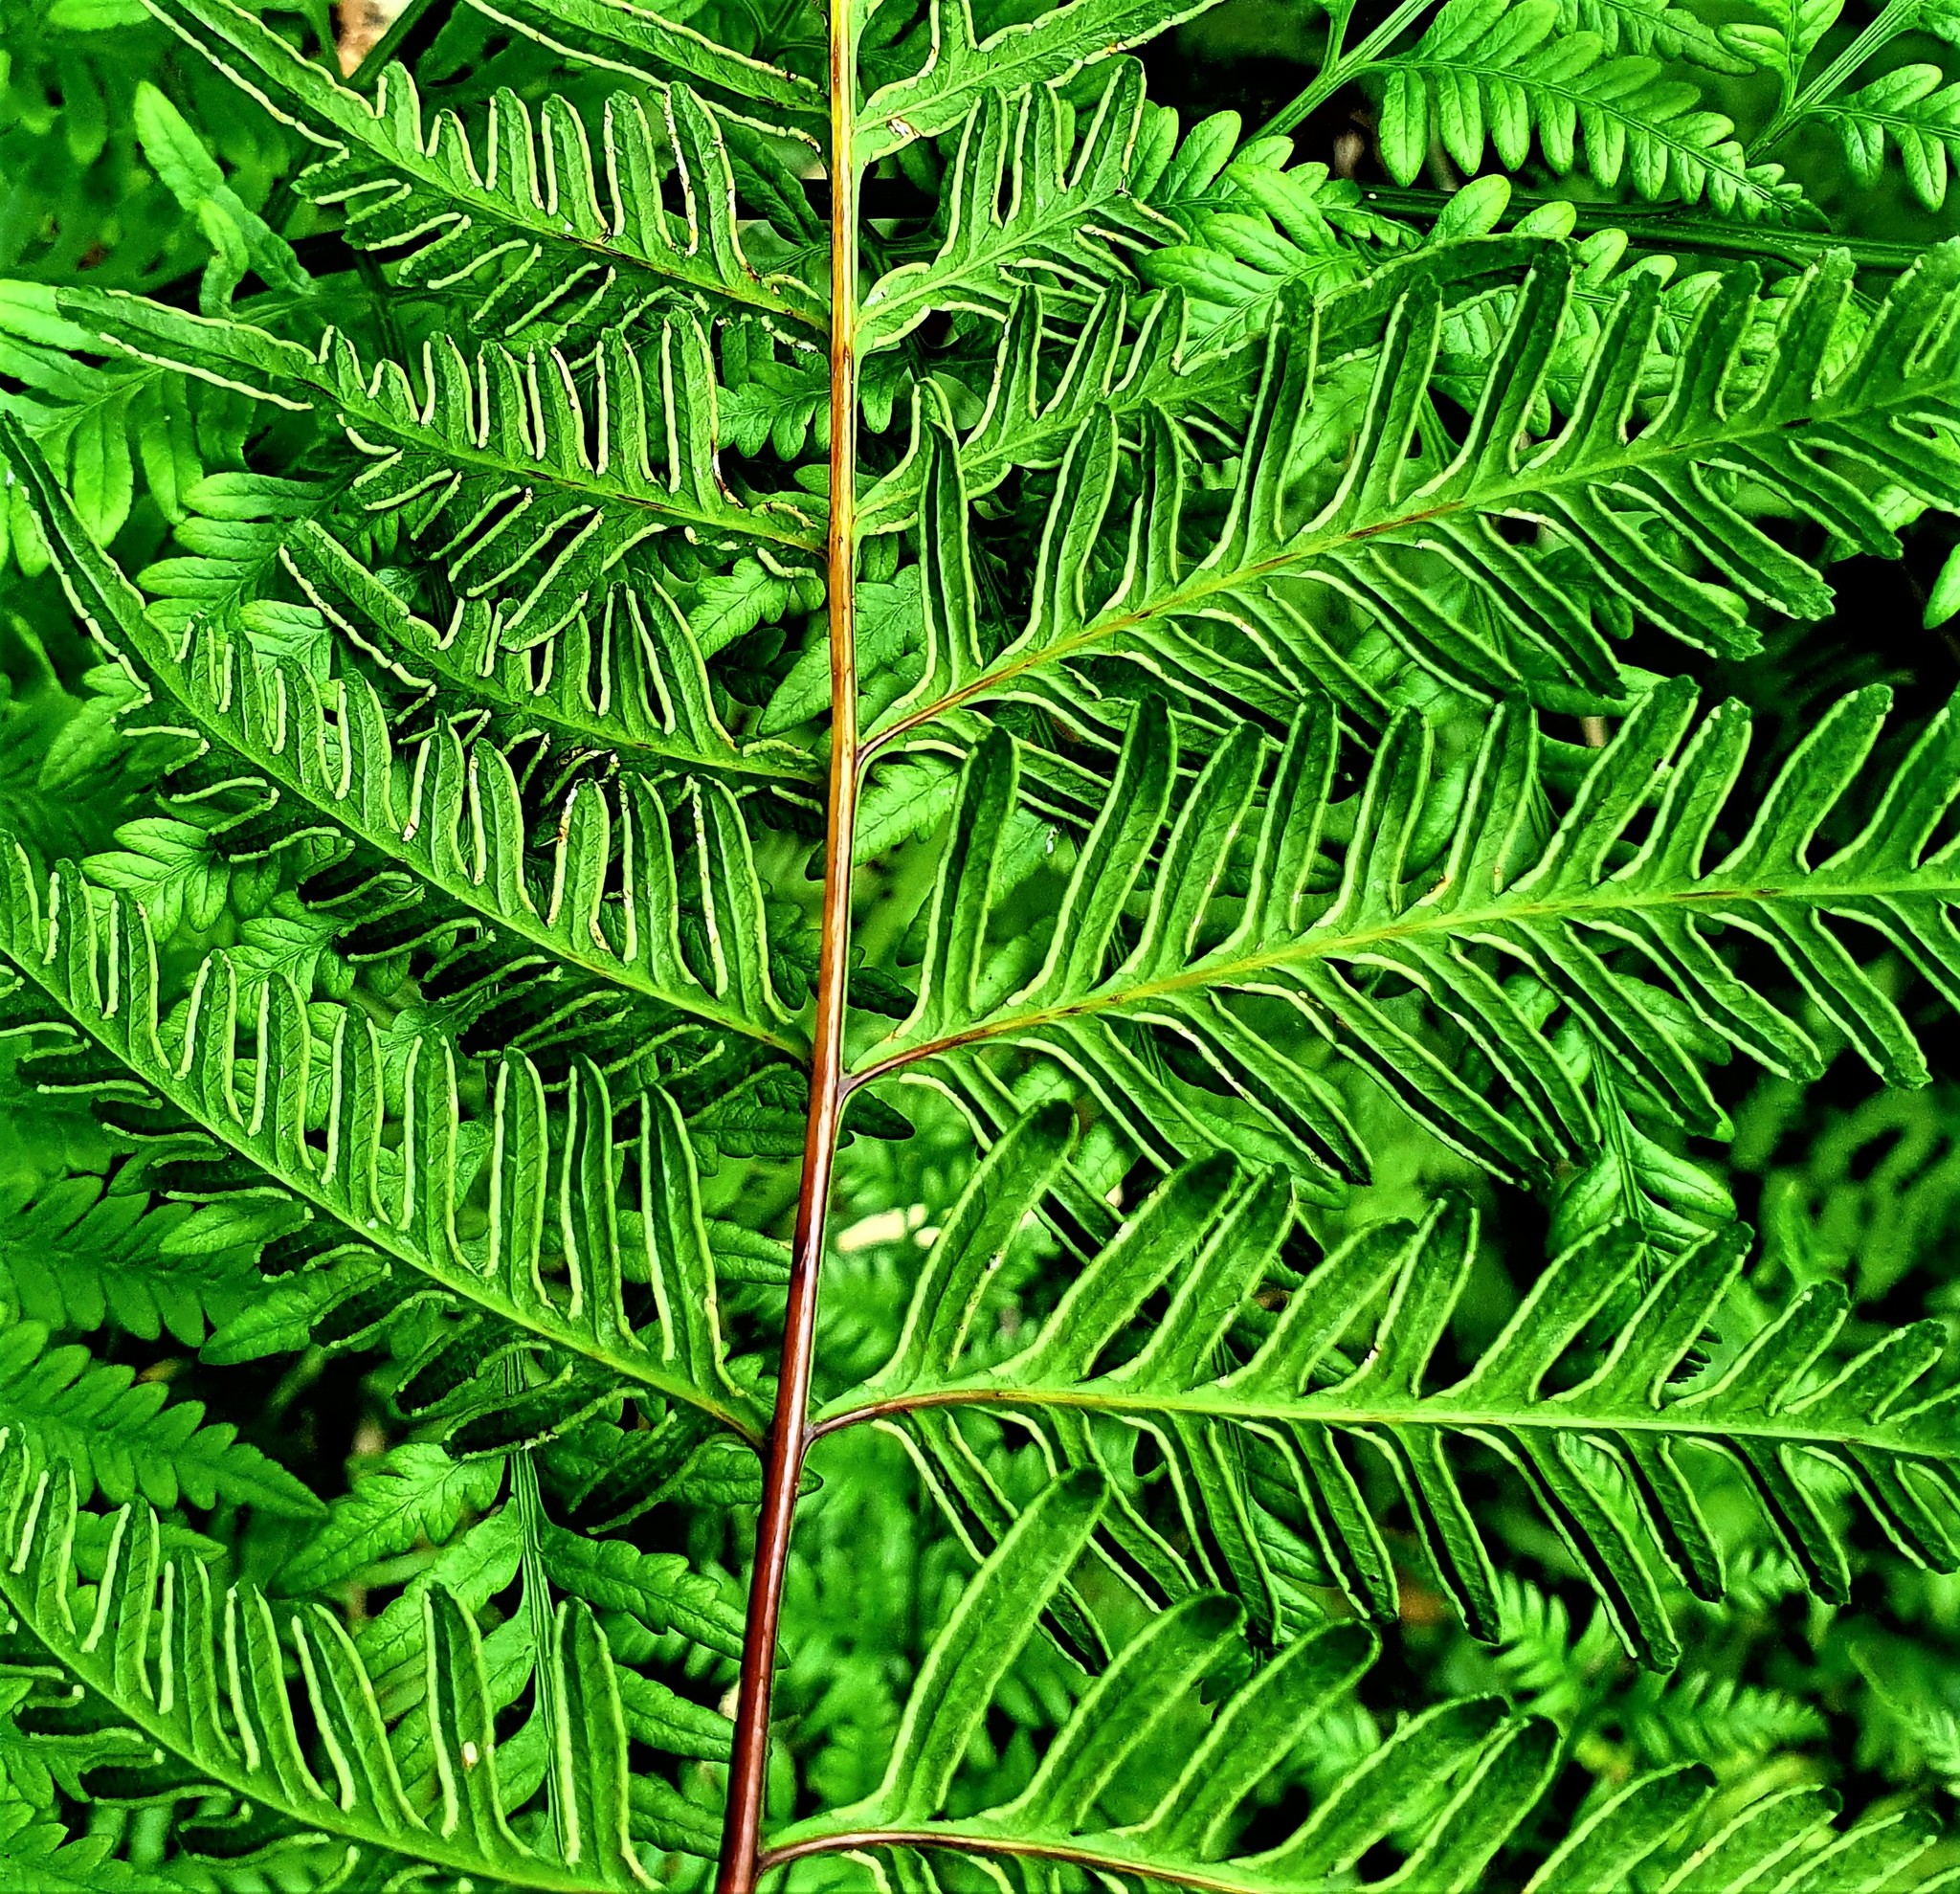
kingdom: Plantae
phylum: Tracheophyta
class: Polypodiopsida
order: Polypodiales
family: Pteridaceae
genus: Pteris
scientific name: Pteris tremula
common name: Australian brake
